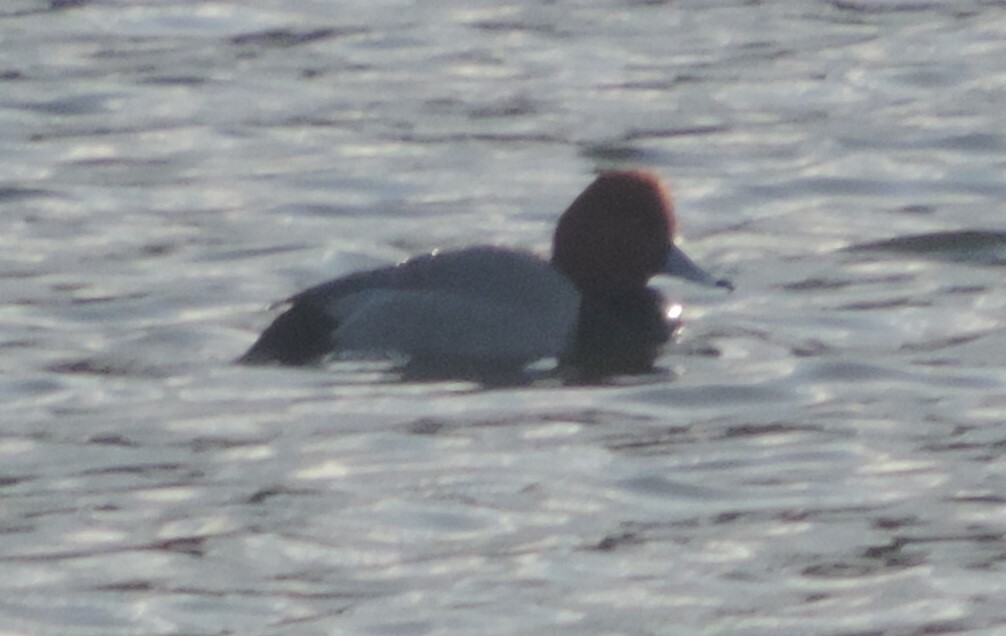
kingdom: Animalia
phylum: Chordata
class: Aves
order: Anseriformes
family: Anatidae
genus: Aythya
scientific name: Aythya americana
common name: Redhead
